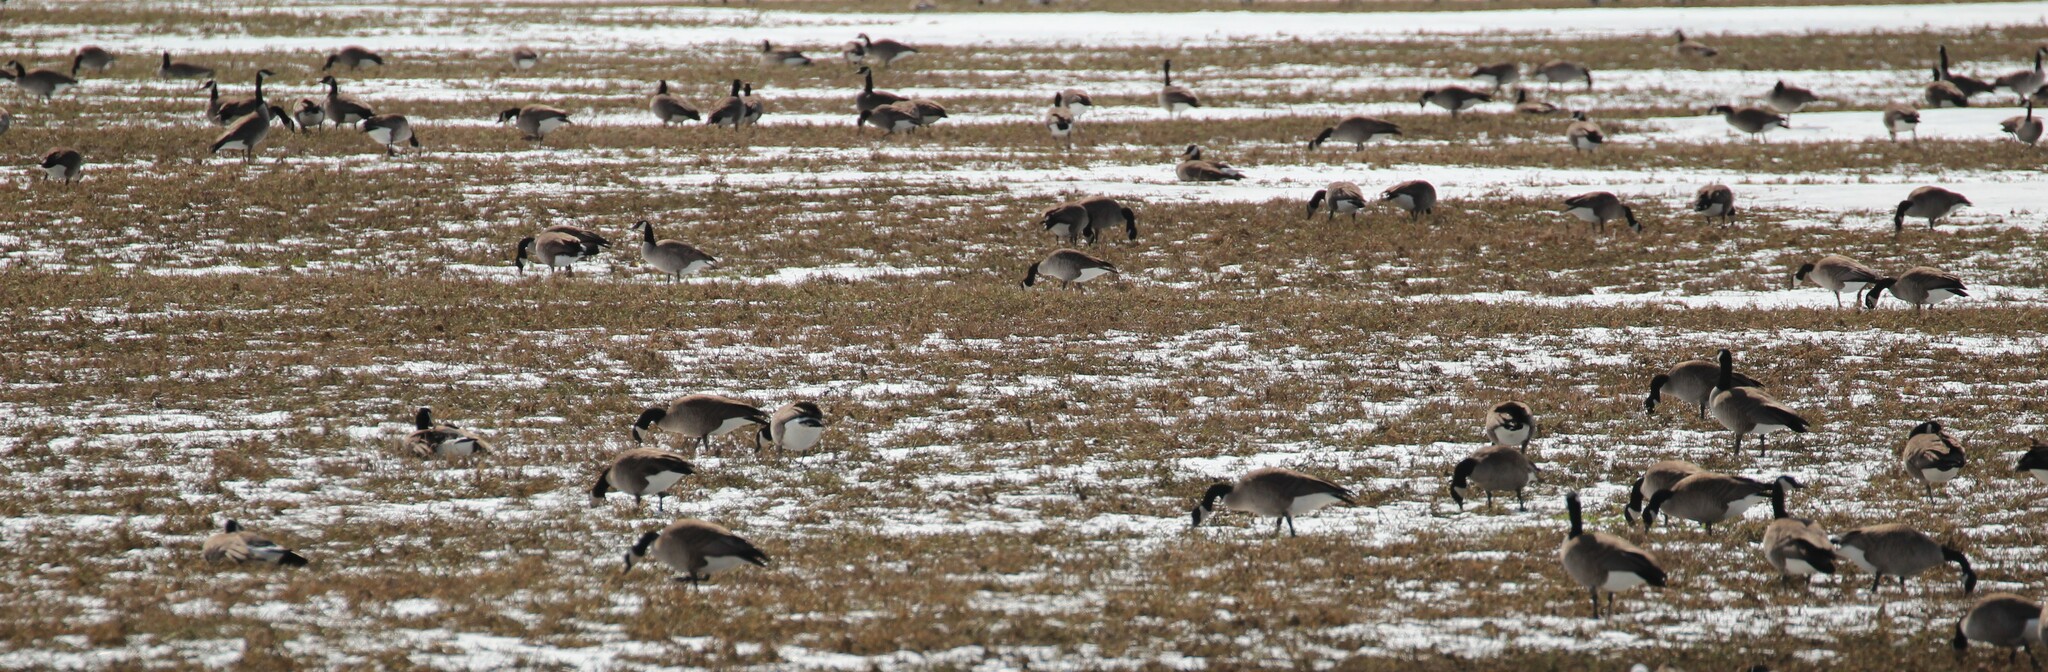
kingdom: Animalia
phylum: Chordata
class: Aves
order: Anseriformes
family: Anatidae
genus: Branta
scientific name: Branta canadensis
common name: Canada goose
